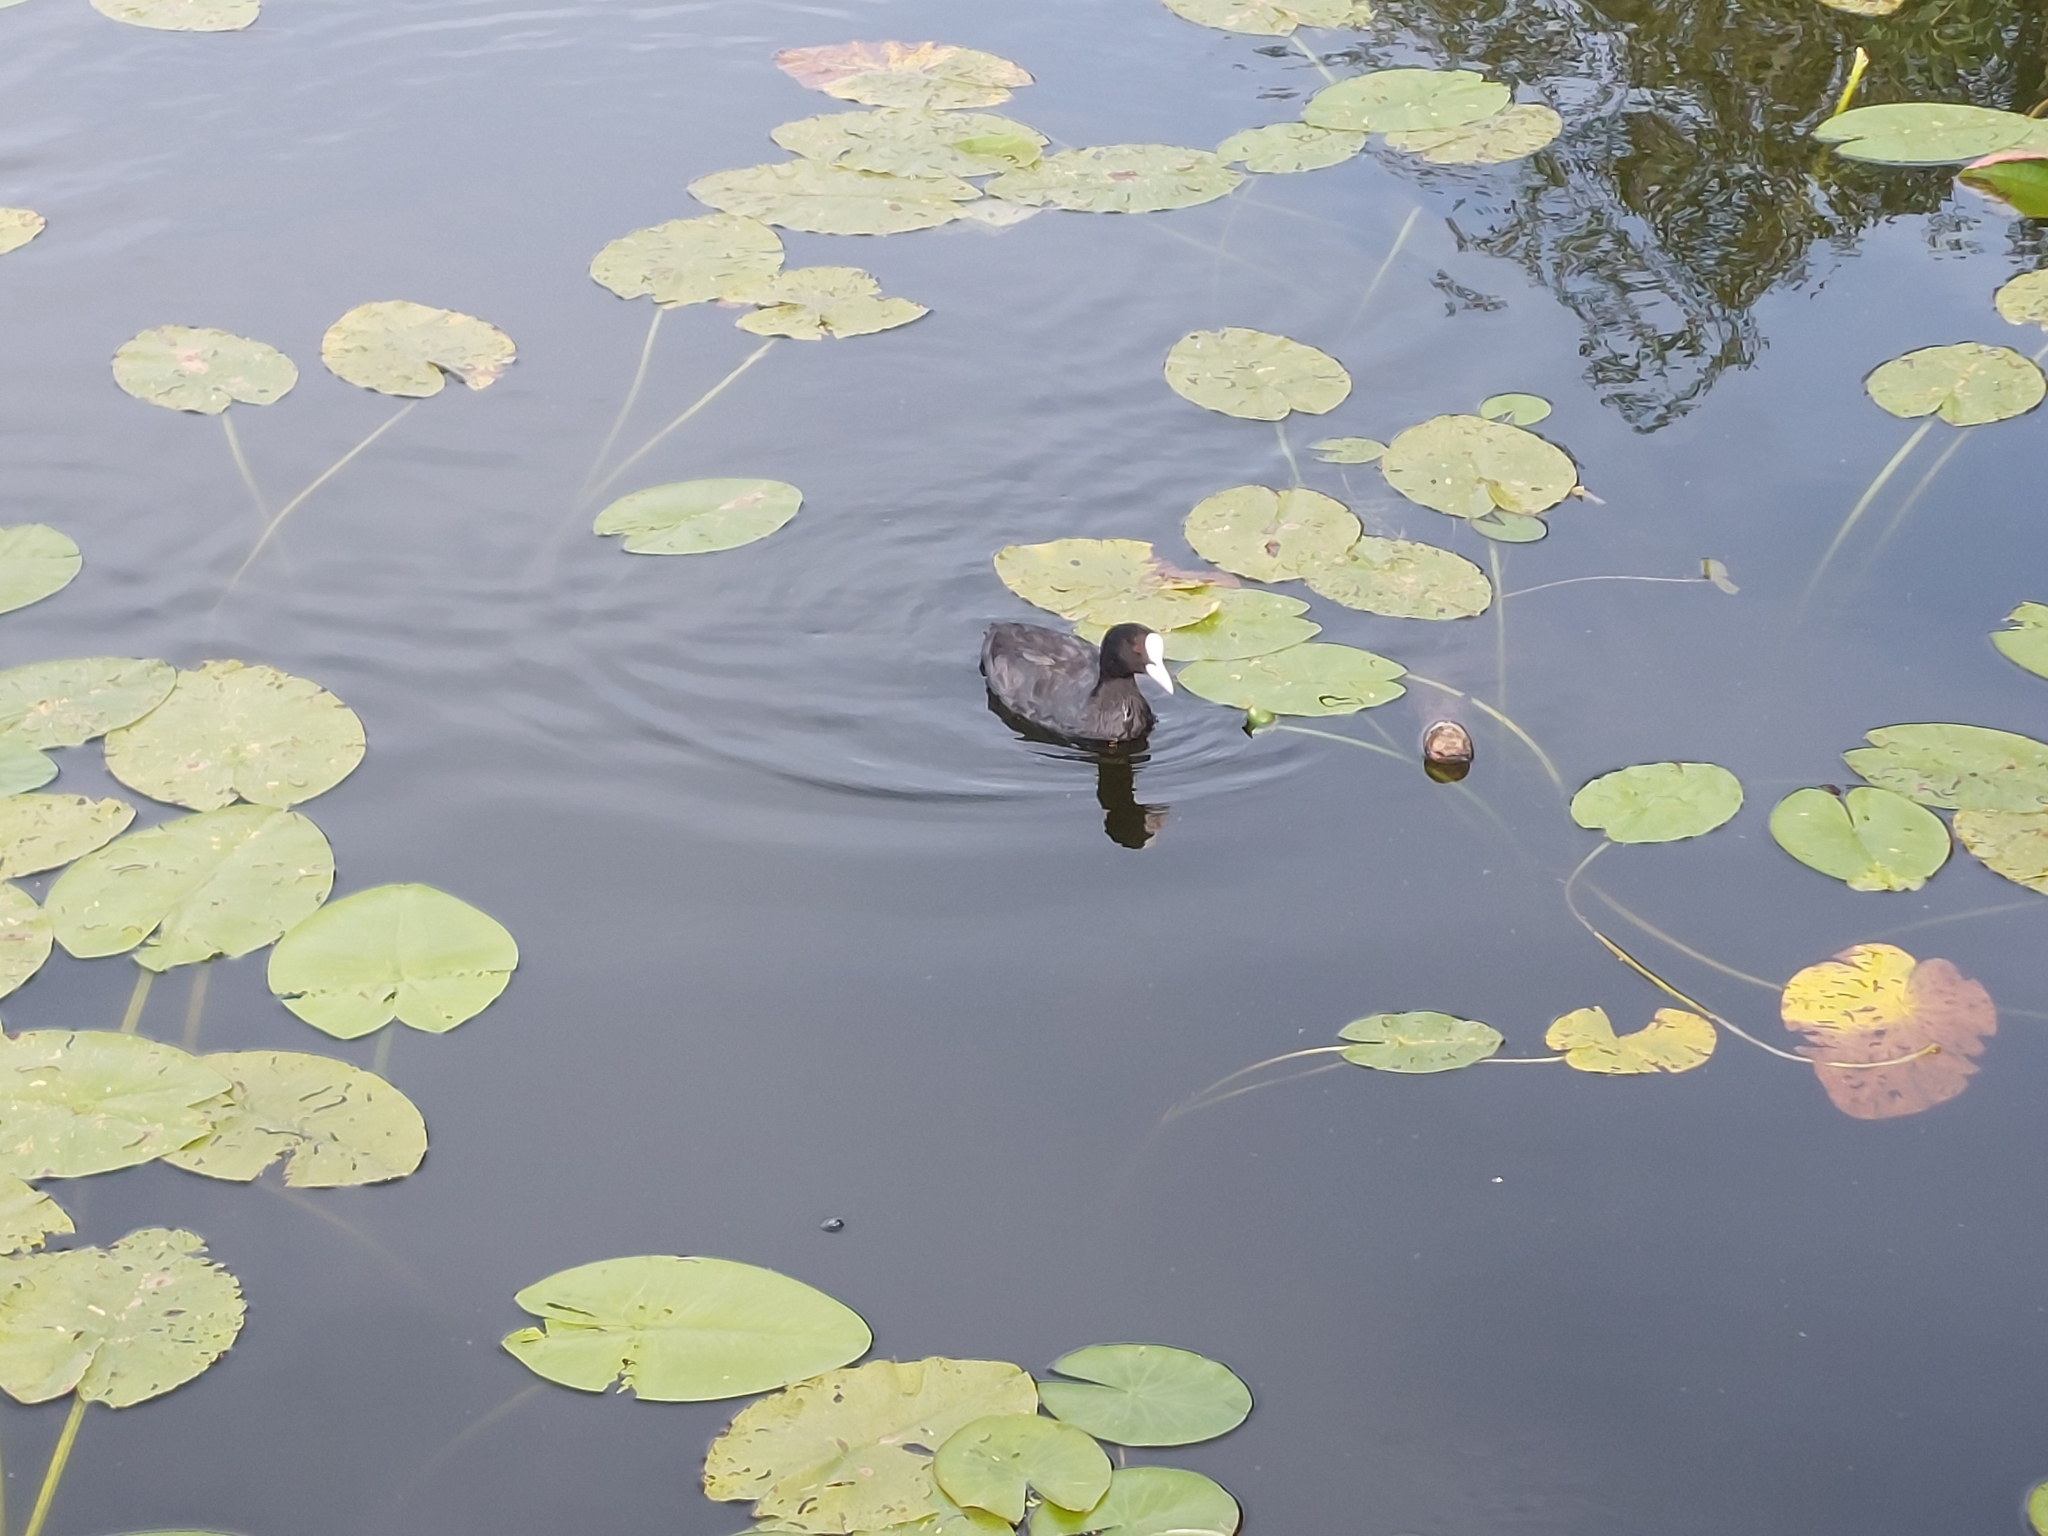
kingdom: Animalia
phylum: Chordata
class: Aves
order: Gruiformes
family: Rallidae
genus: Fulica
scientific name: Fulica atra
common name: Eurasian coot
